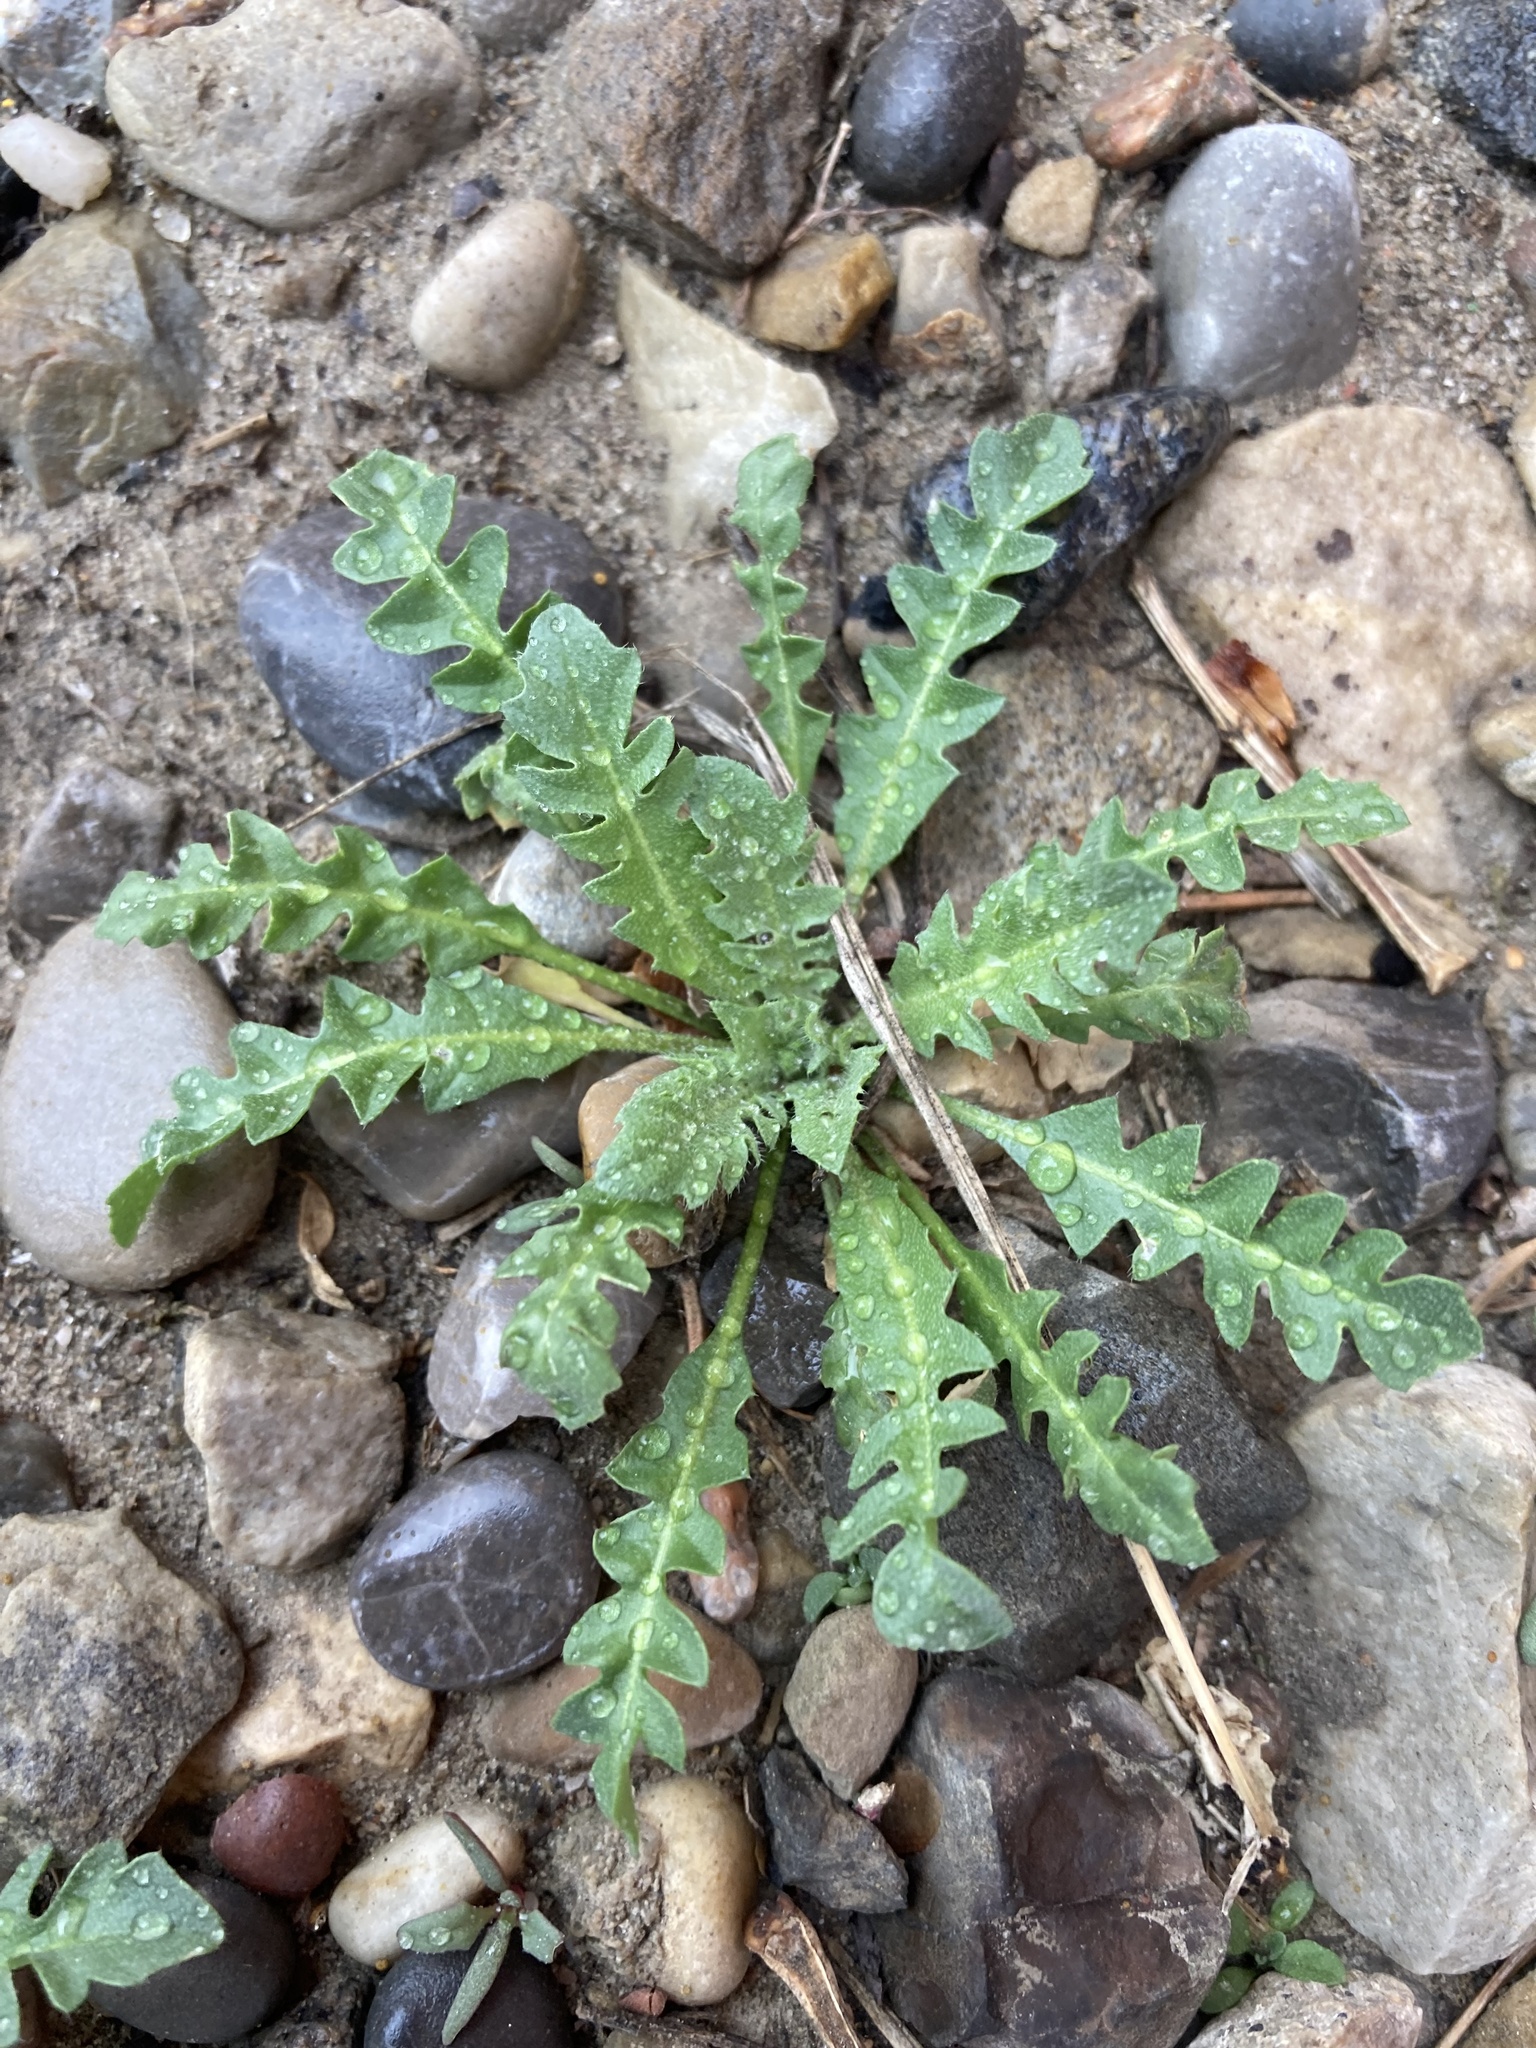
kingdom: Plantae
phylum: Tracheophyta
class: Magnoliopsida
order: Brassicales
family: Brassicaceae
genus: Capsella
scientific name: Capsella bursa-pastoris
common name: Shepherd's purse
